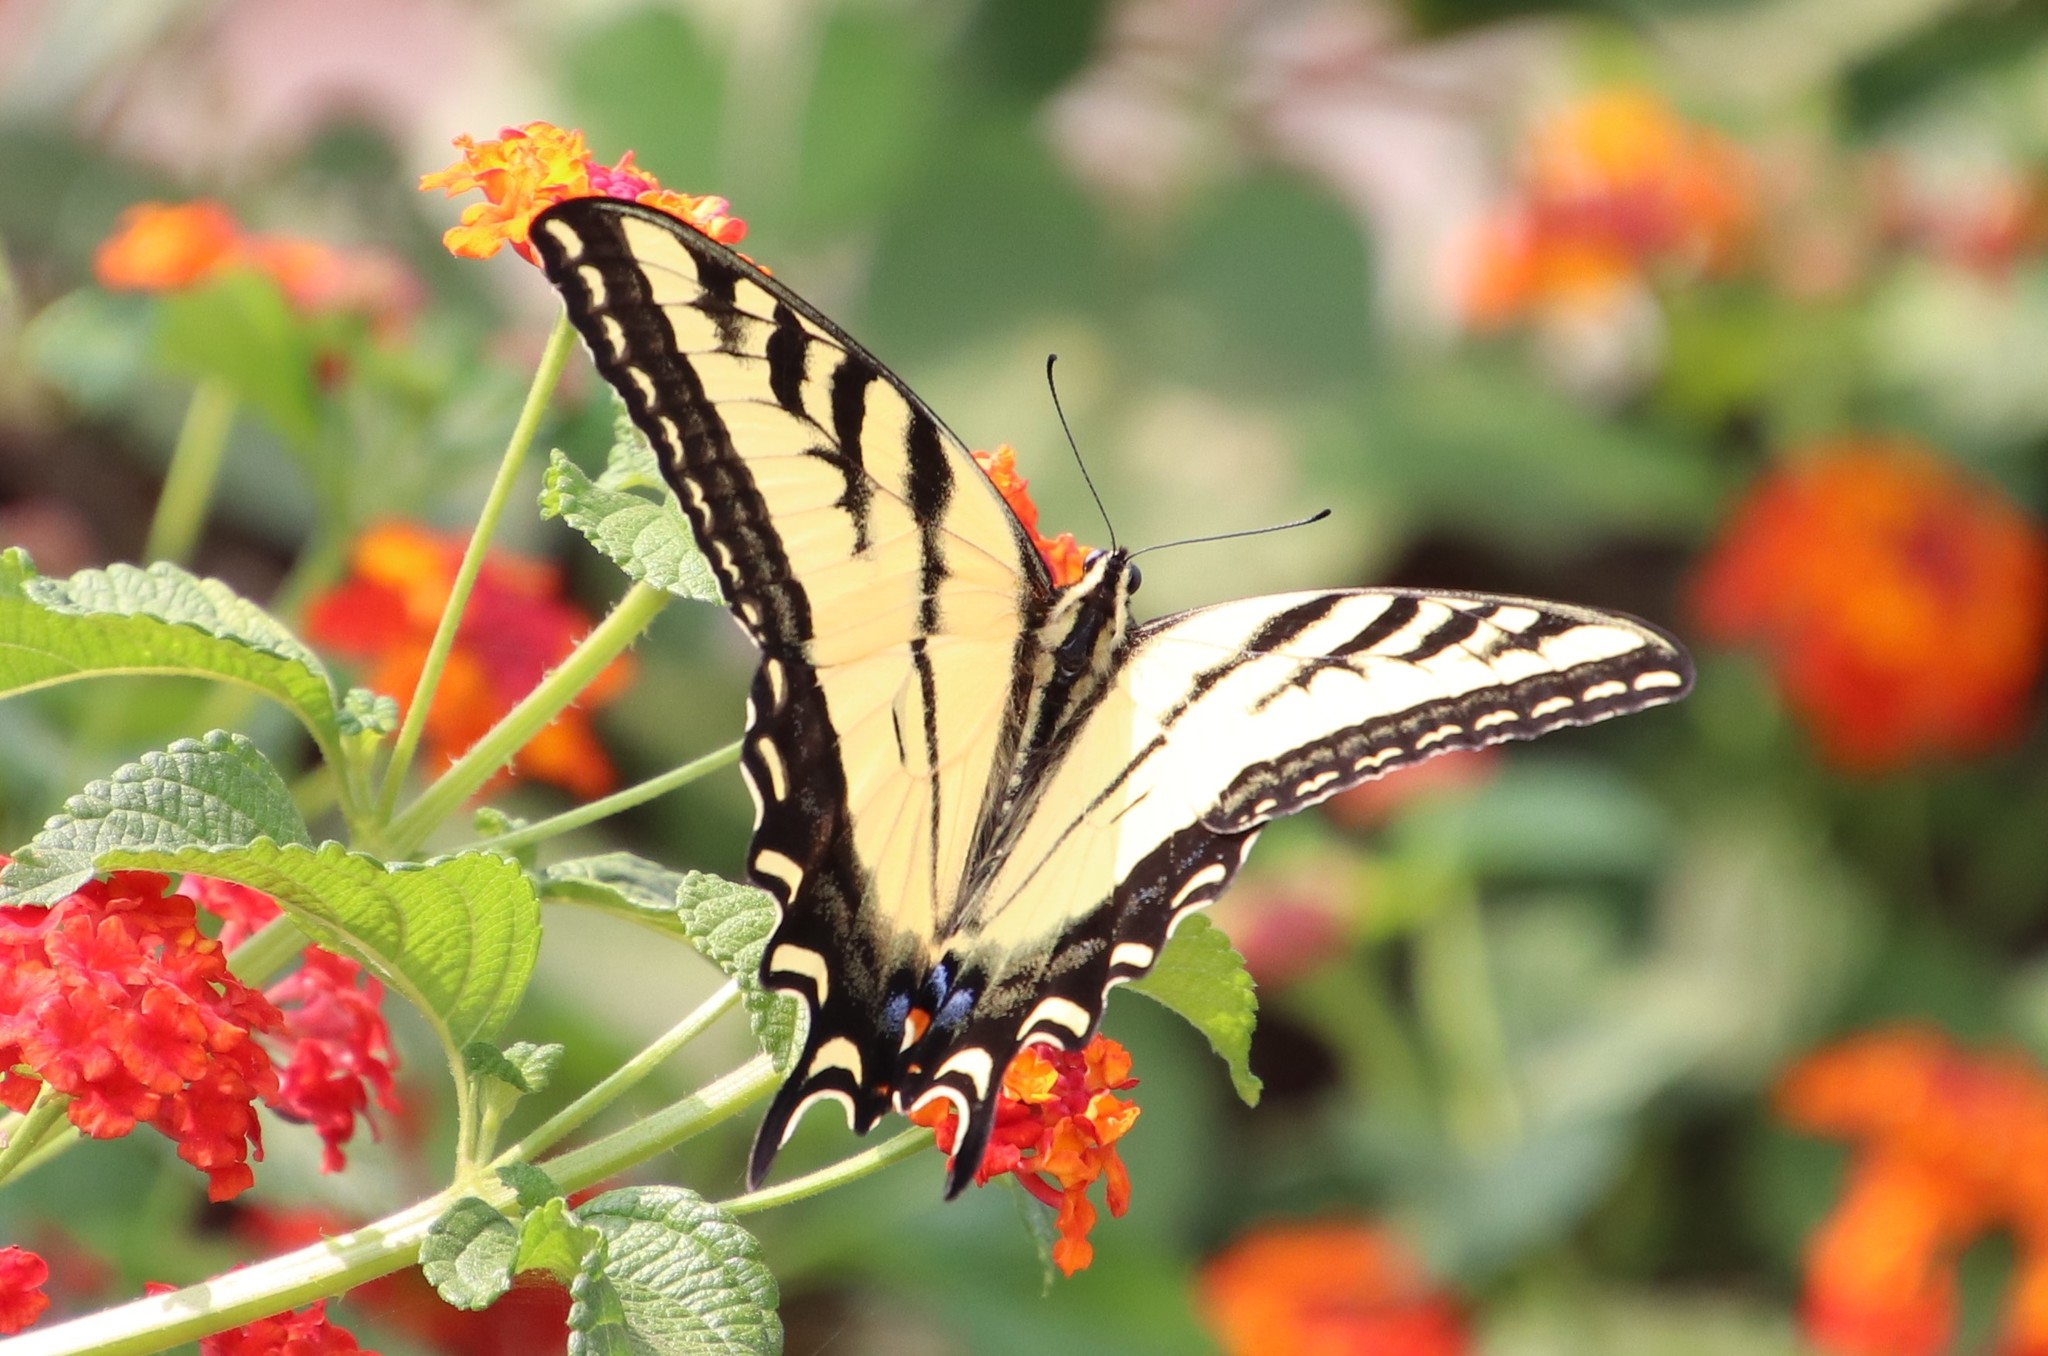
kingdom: Animalia
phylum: Arthropoda
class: Insecta
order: Lepidoptera
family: Papilionidae
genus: Papilio
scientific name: Papilio rutulus
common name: Western tiger swallowtail
